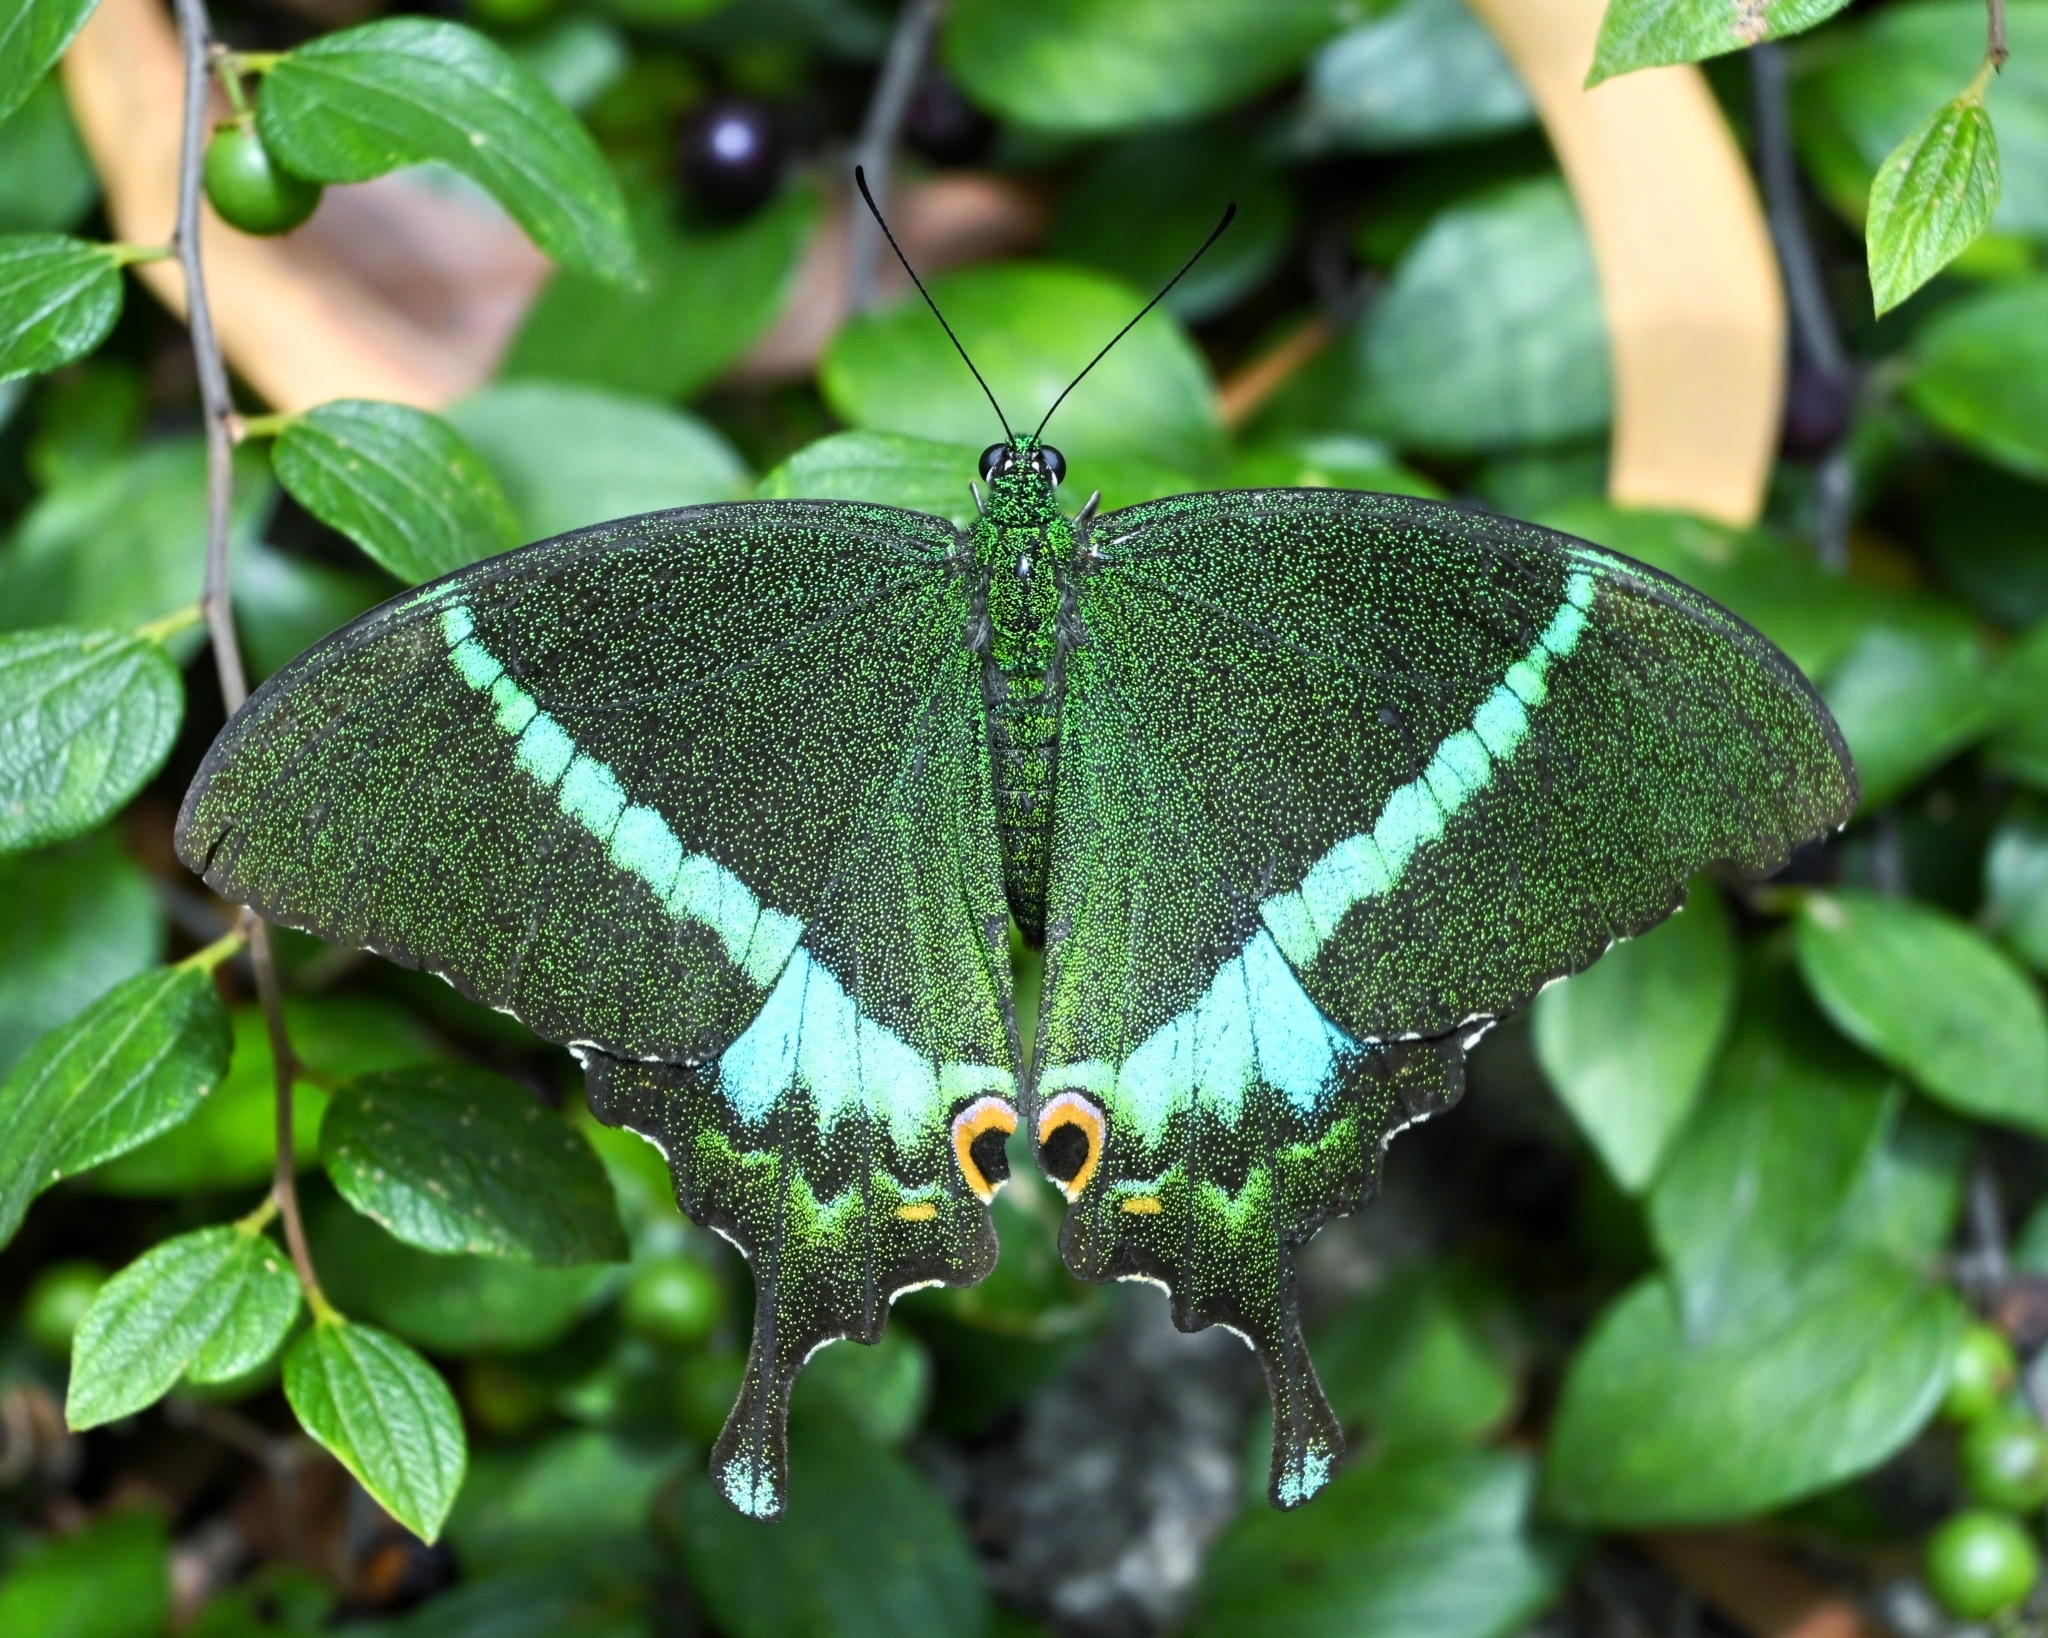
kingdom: Animalia
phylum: Arthropoda
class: Insecta
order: Lepidoptera
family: Papilionidae
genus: Papilio
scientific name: Papilio crino
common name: Common banded peacock
